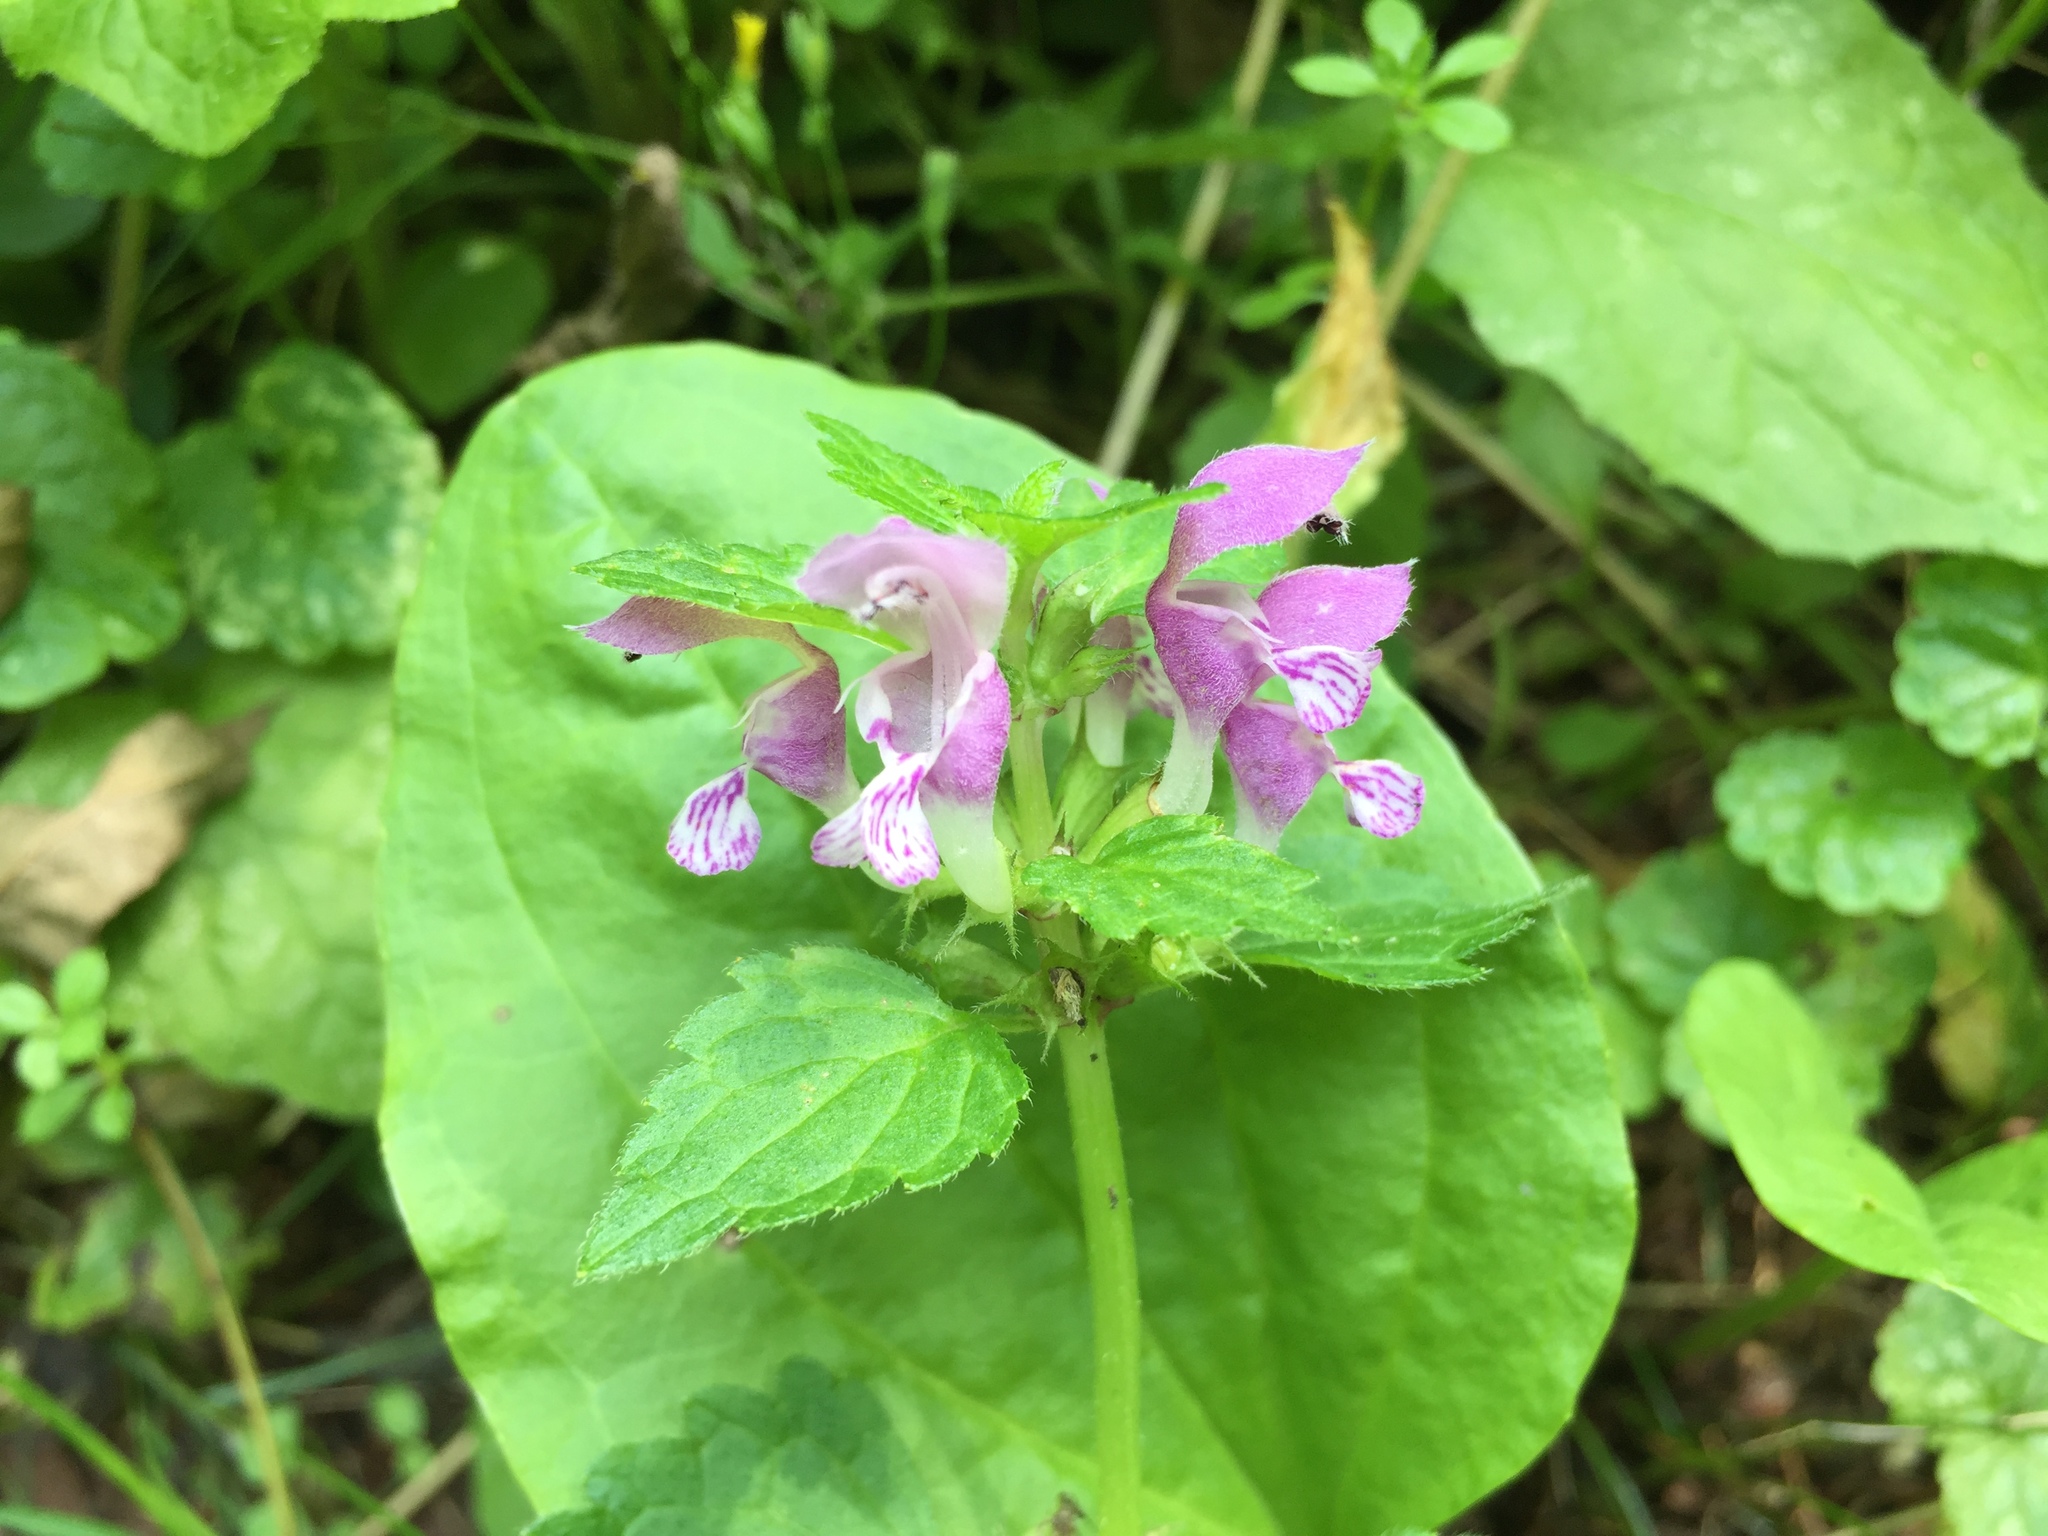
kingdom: Plantae
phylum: Tracheophyta
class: Magnoliopsida
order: Lamiales
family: Lamiaceae
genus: Lamium
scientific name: Lamium maculatum
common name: Spotted dead-nettle
